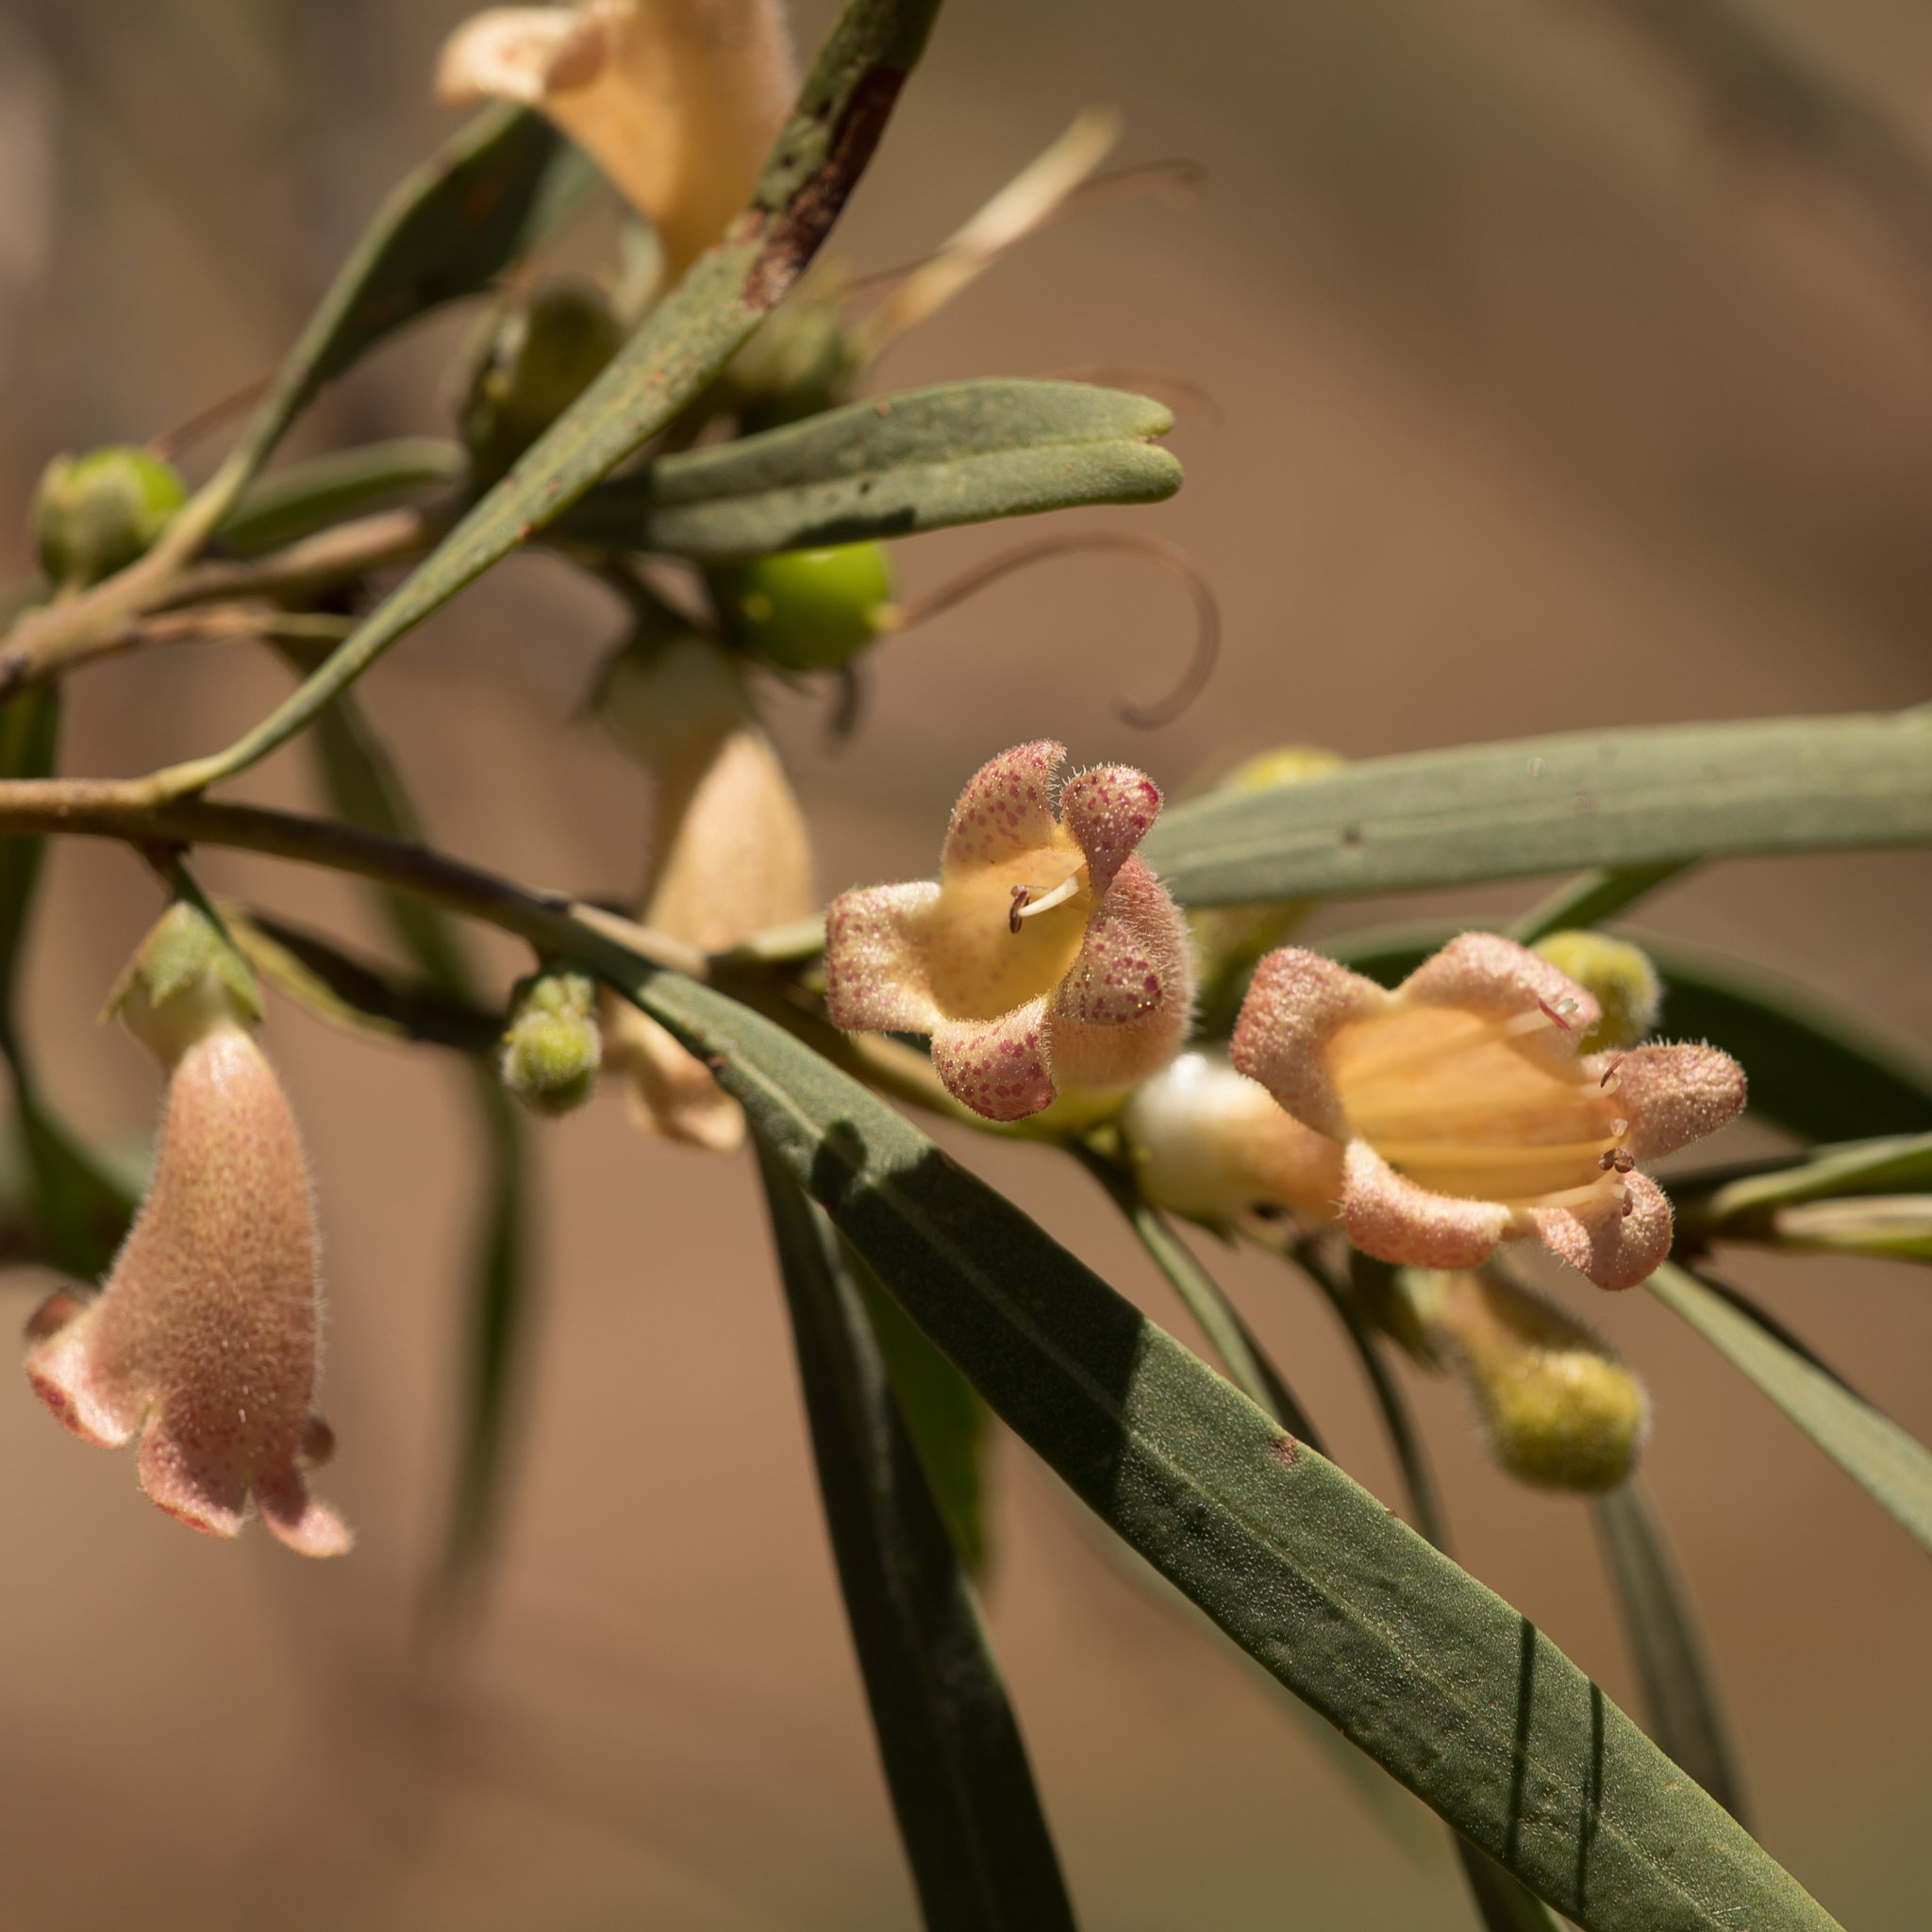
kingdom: Plantae
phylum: Tracheophyta
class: Magnoliopsida
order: Lamiales
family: Scrophulariaceae
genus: Eremophila
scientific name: Eremophila longifolia
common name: Longleaf emubush
